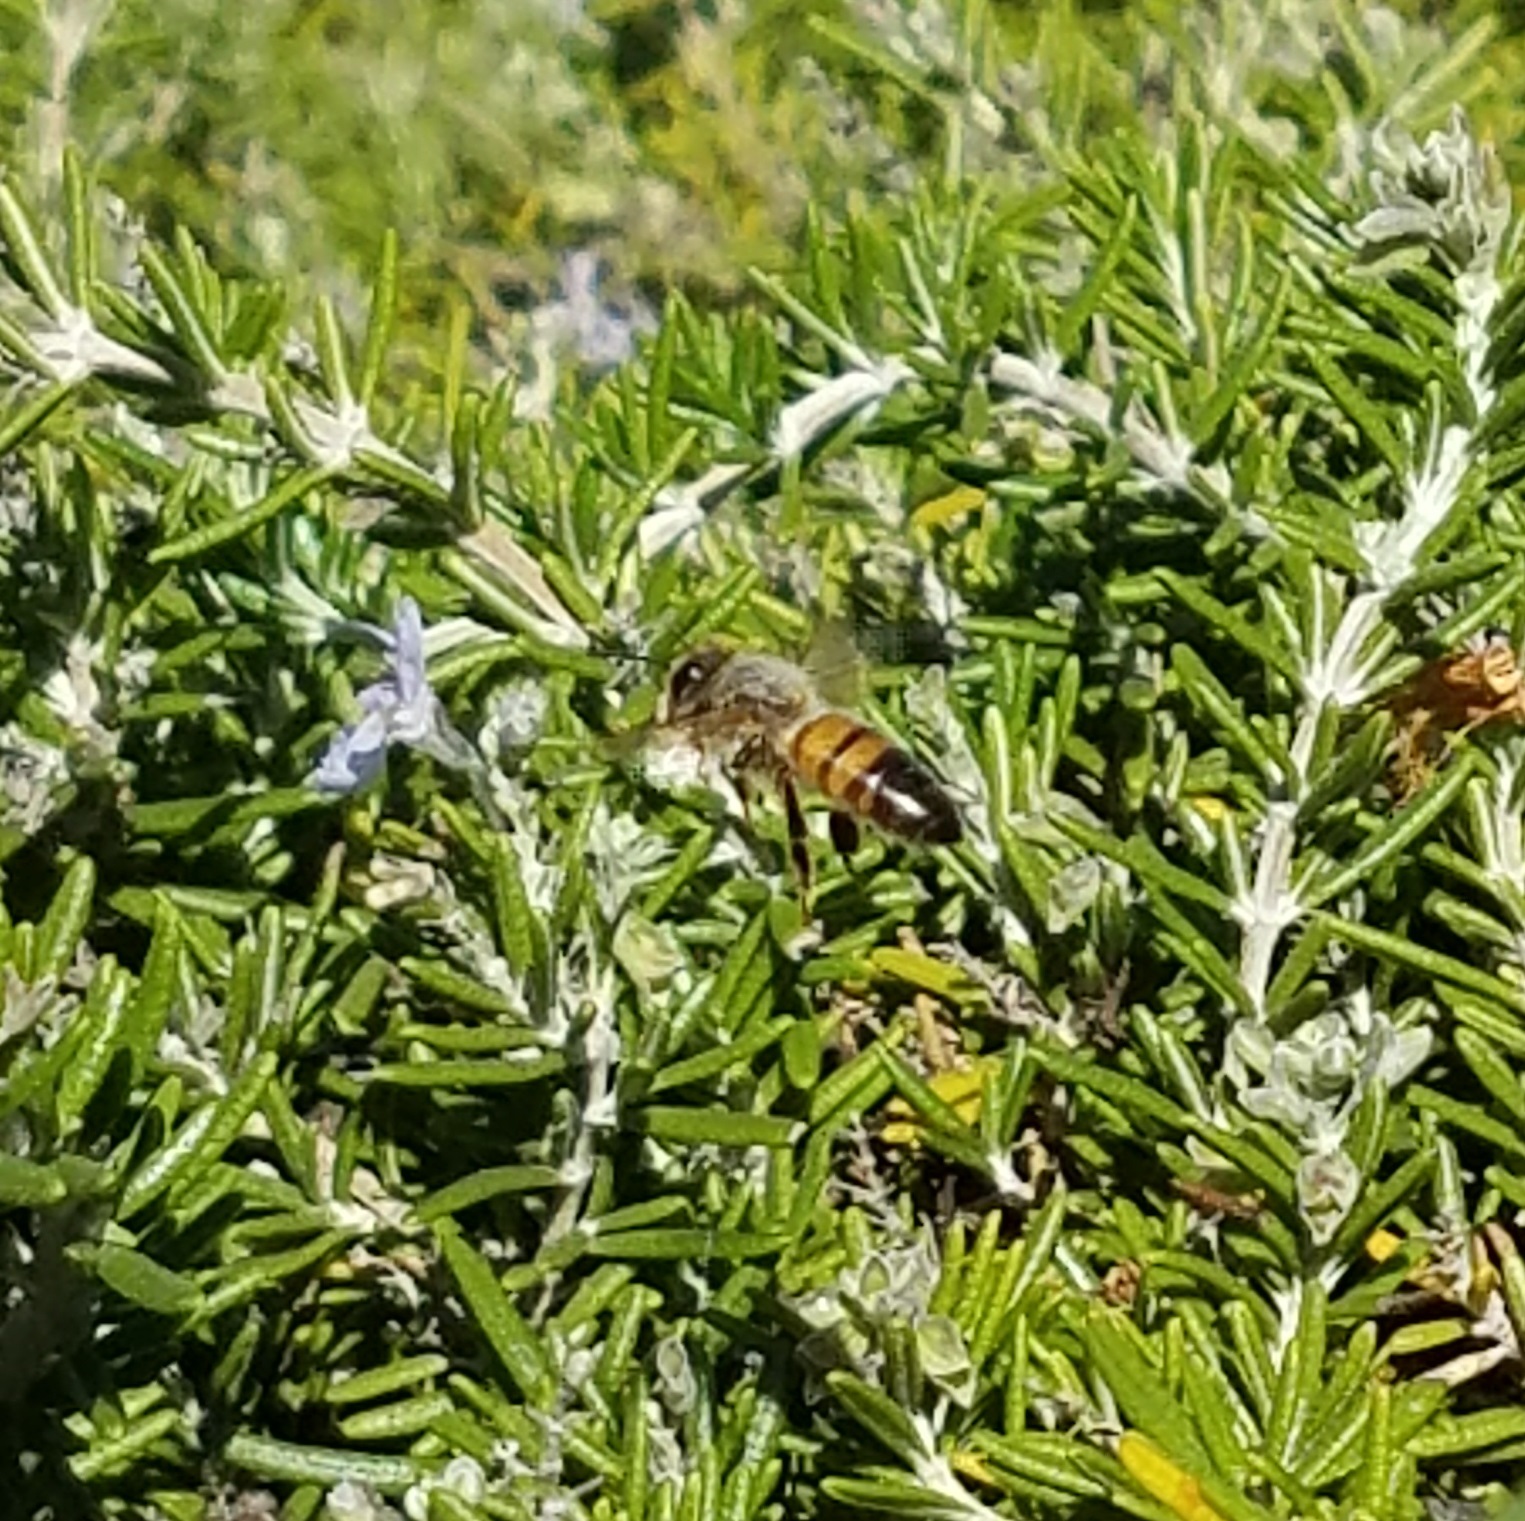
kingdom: Animalia
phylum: Arthropoda
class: Insecta
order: Hymenoptera
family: Apidae
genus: Apis
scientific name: Apis mellifera
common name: Honey bee
